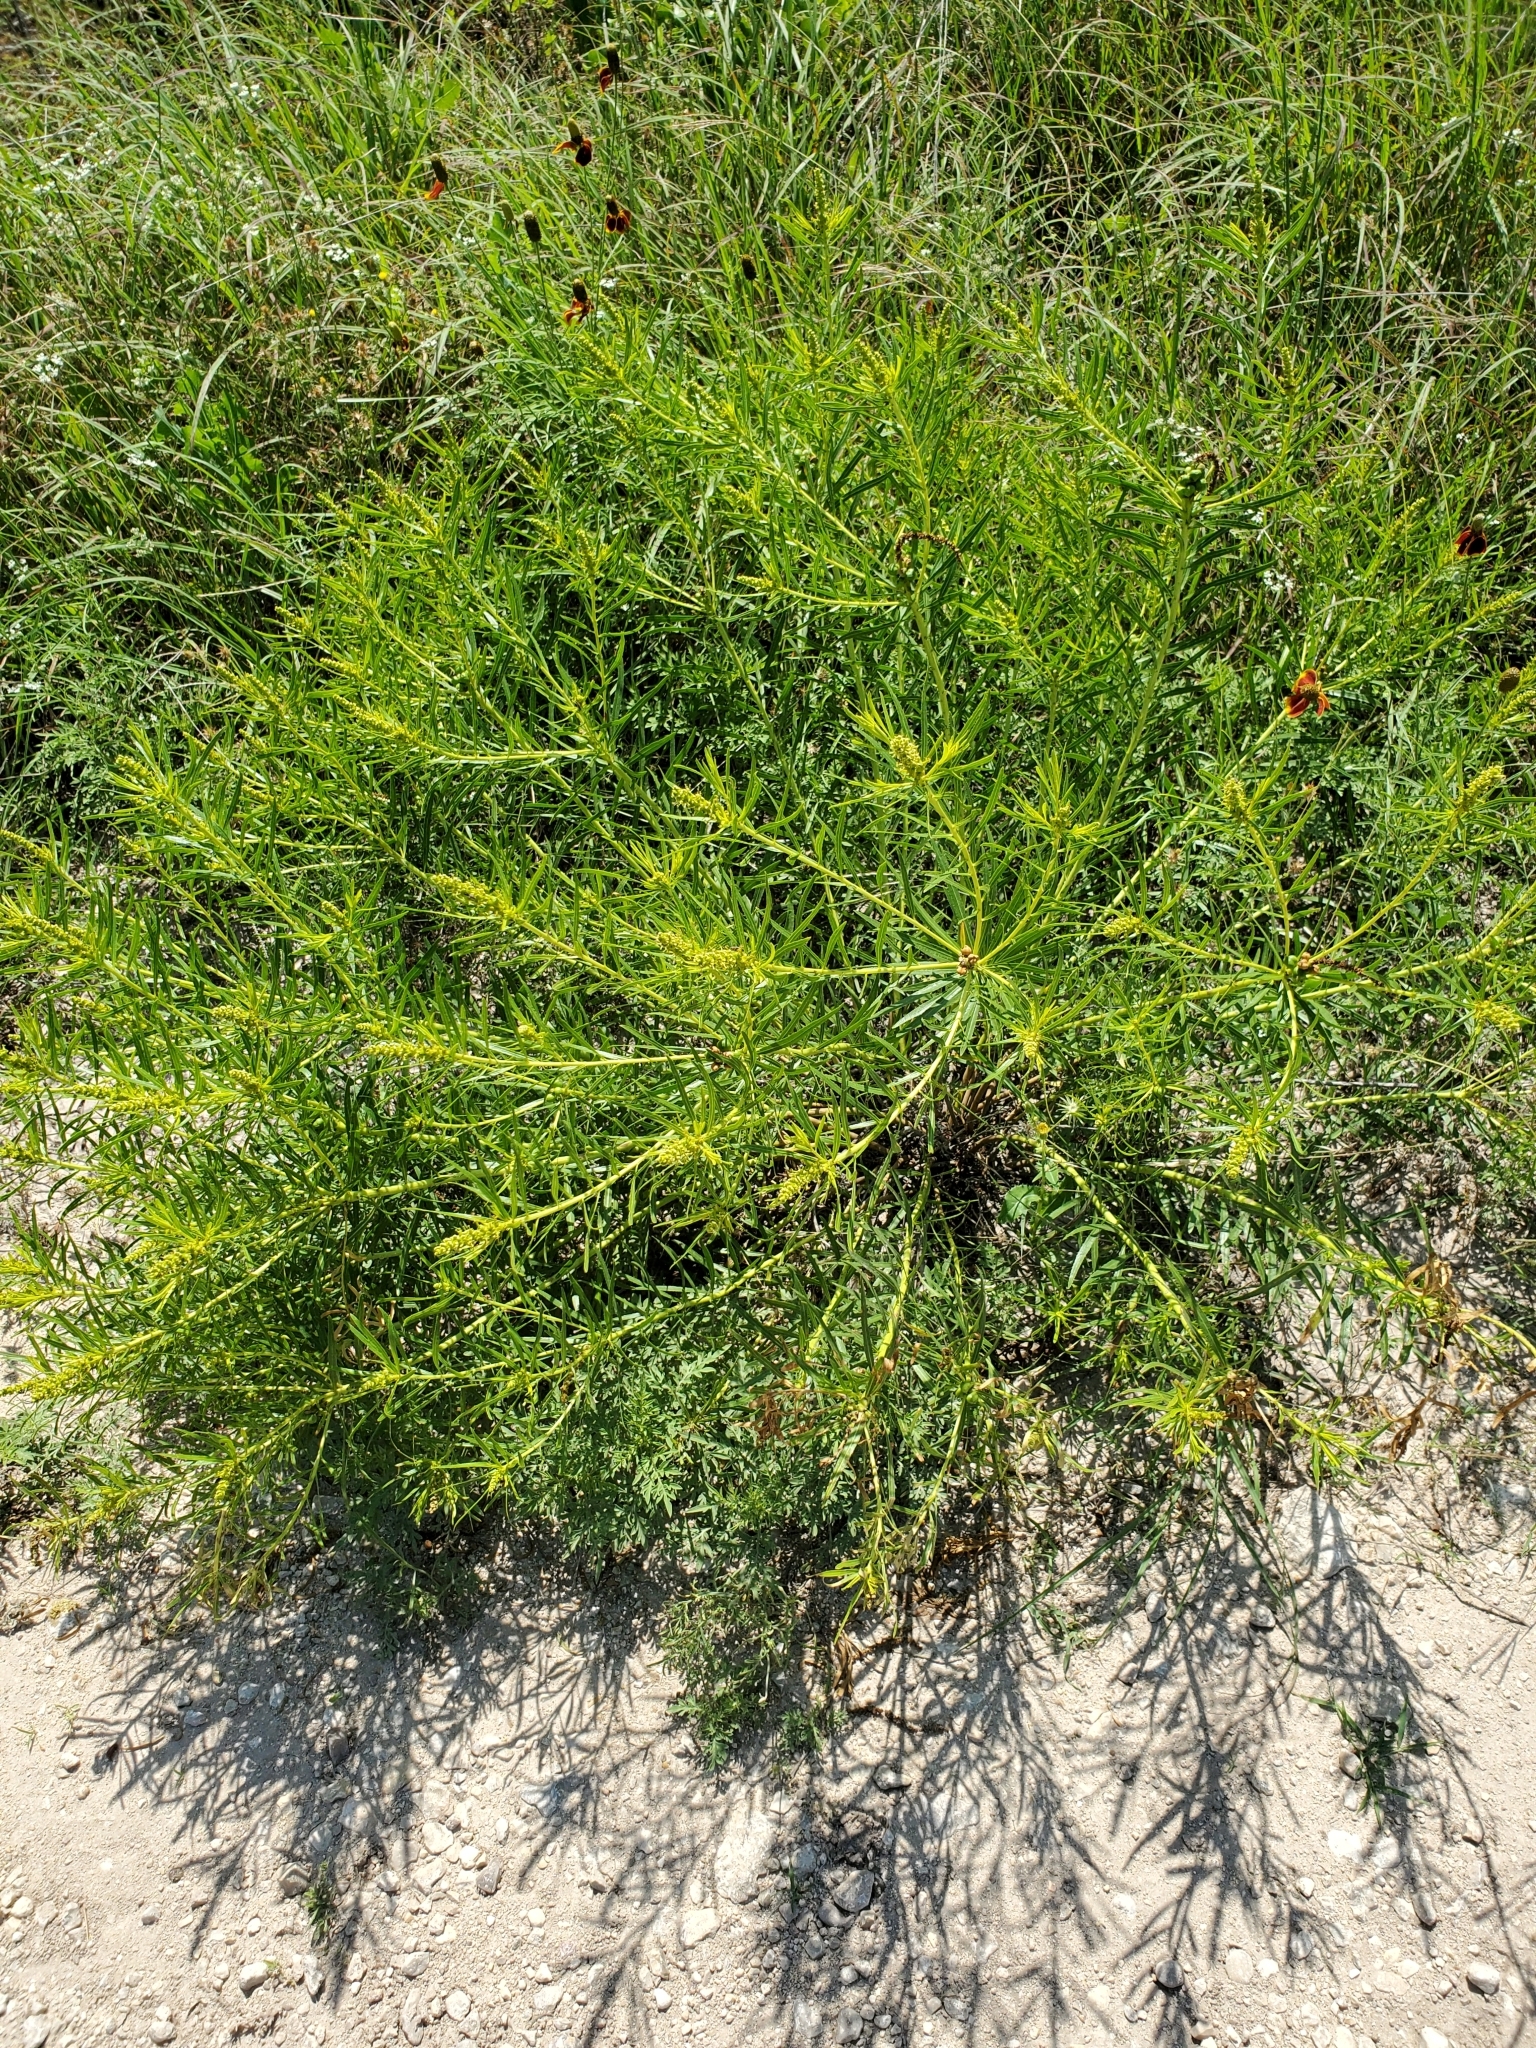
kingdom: Plantae
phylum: Tracheophyta
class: Magnoliopsida
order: Malpighiales
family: Euphorbiaceae
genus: Stillingia
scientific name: Stillingia texana
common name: Texas stillingia
